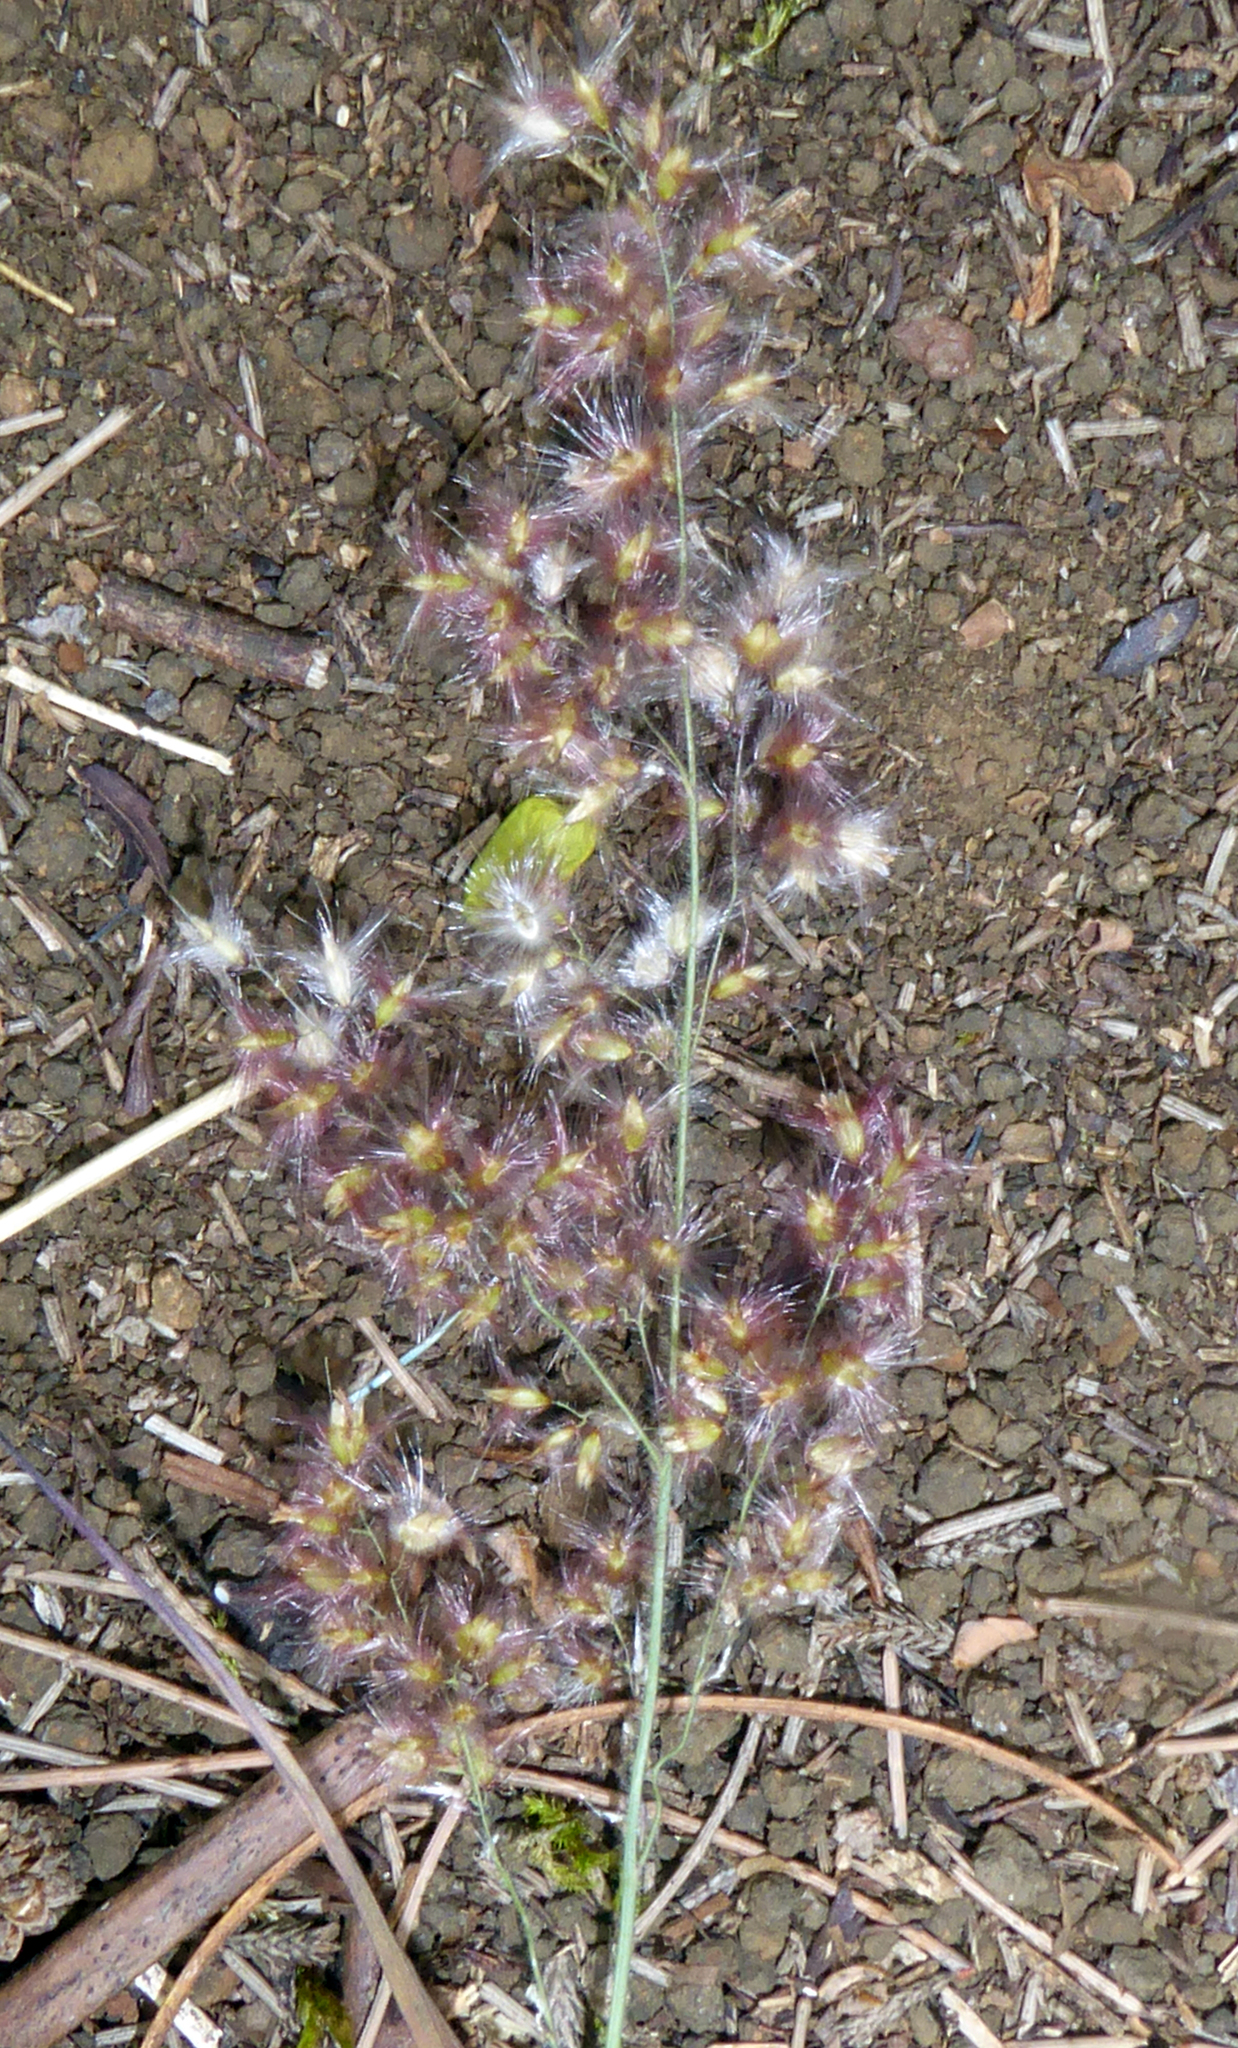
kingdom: Plantae
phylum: Tracheophyta
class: Liliopsida
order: Poales
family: Poaceae
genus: Melinis
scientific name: Melinis repens
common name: Rose natal grass
